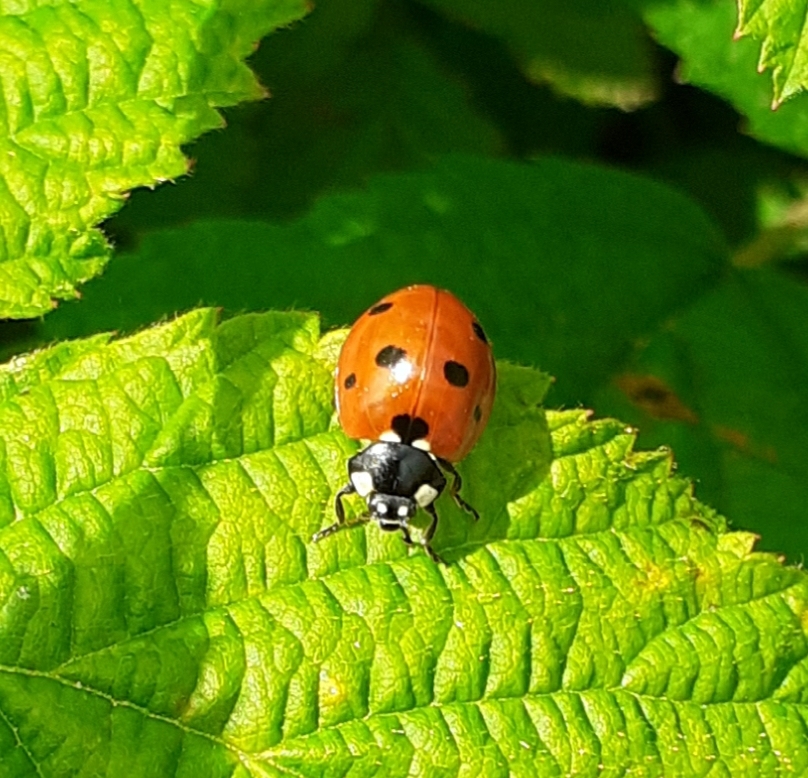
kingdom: Animalia
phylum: Arthropoda
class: Insecta
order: Coleoptera
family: Coccinellidae
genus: Coccinella
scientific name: Coccinella septempunctata
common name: Sevenspotted lady beetle
